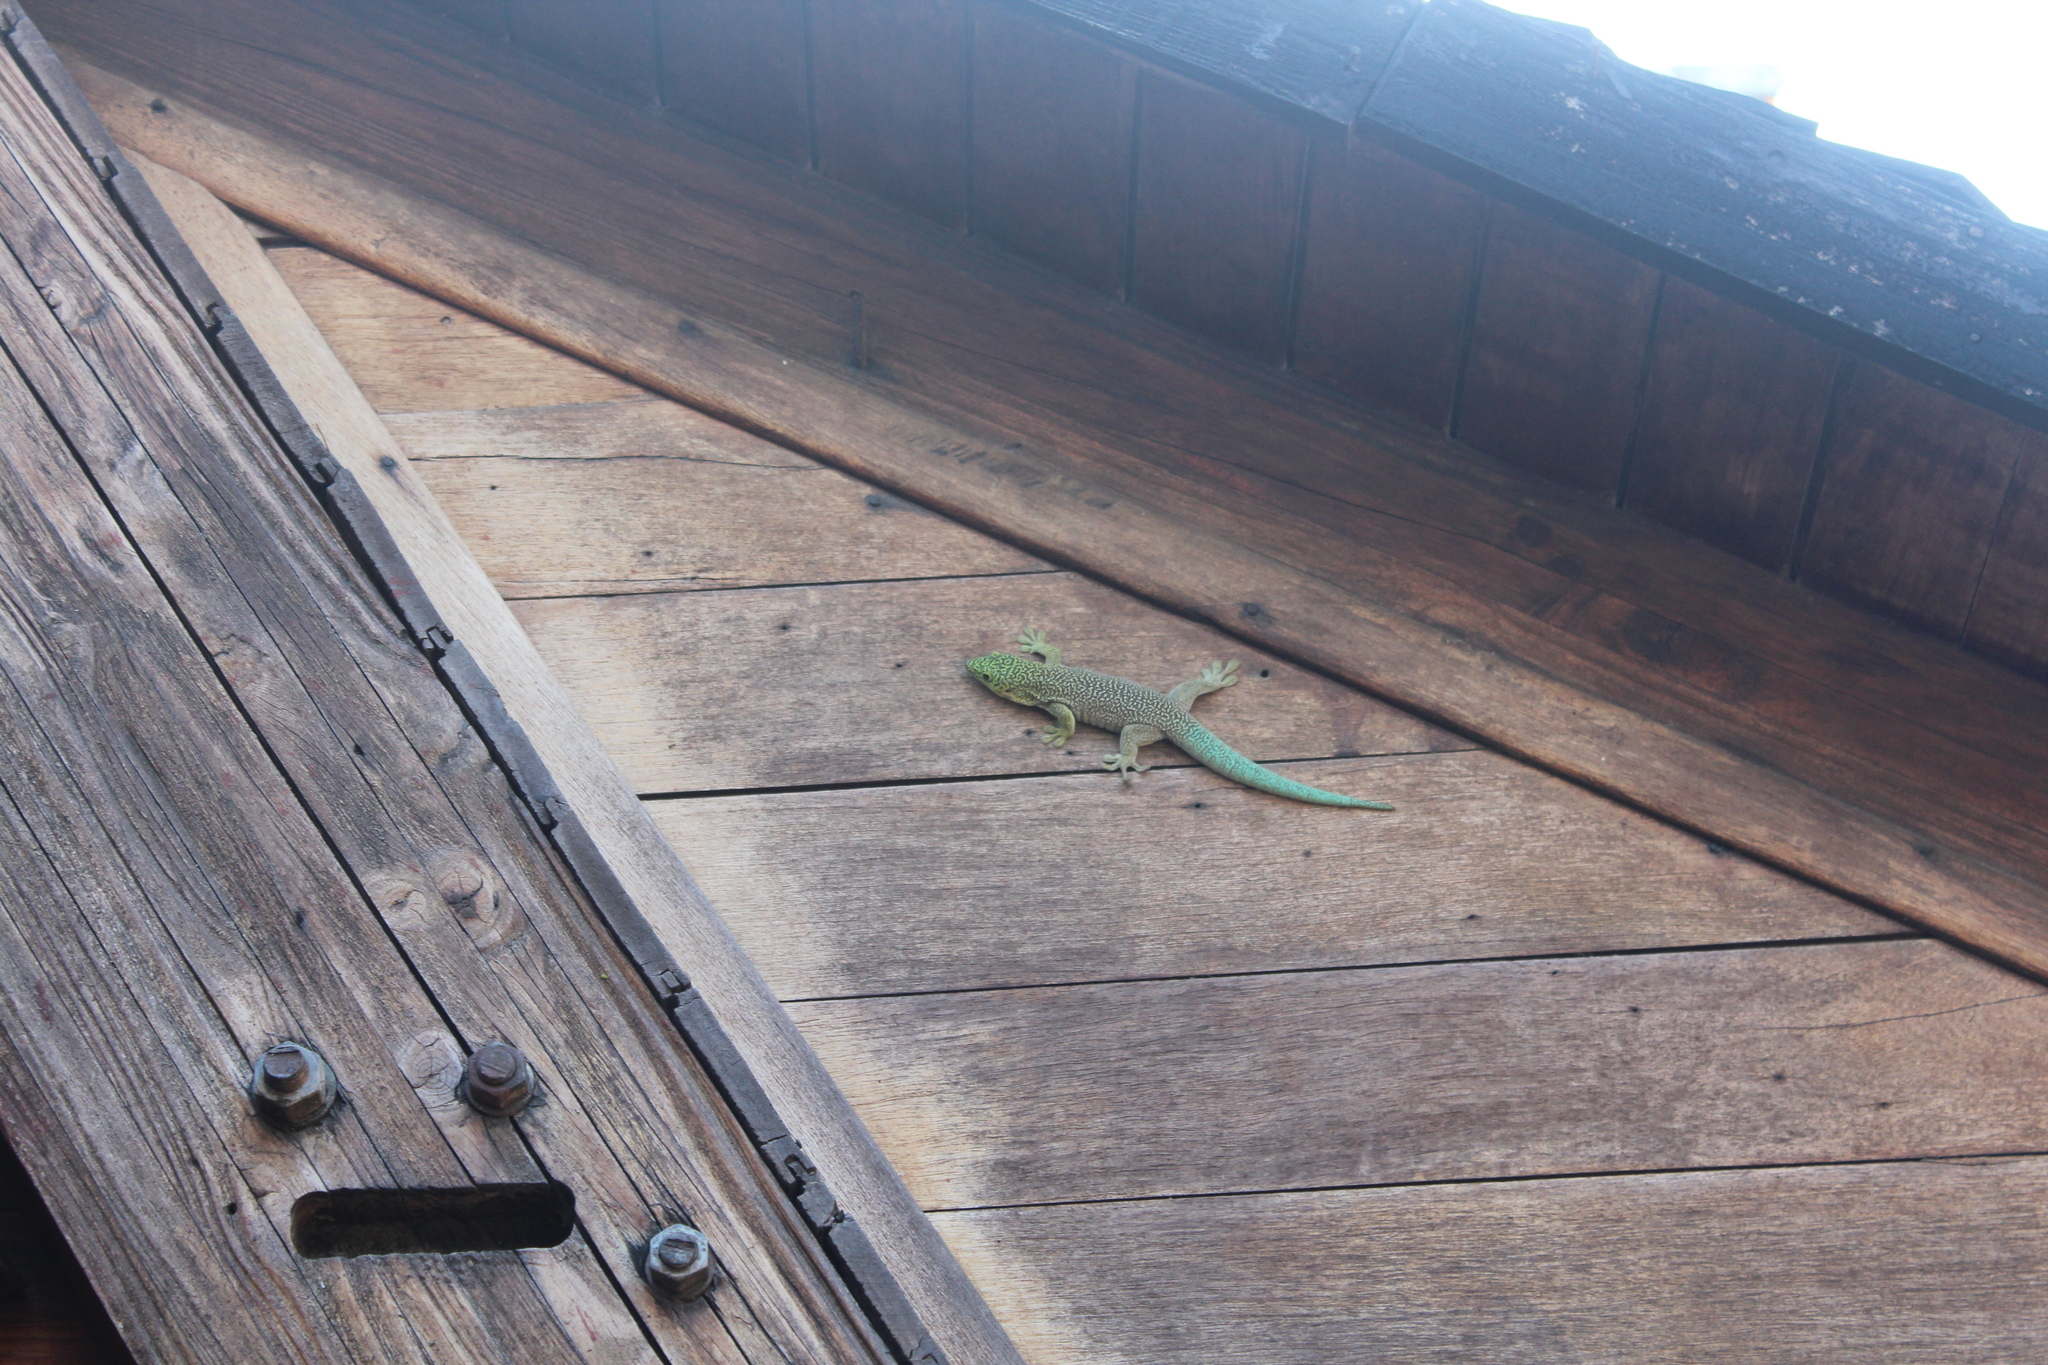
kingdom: Animalia
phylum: Chordata
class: Squamata
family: Gekkonidae
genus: Phelsuma
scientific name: Phelsuma standingi
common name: Standing's day gecko
